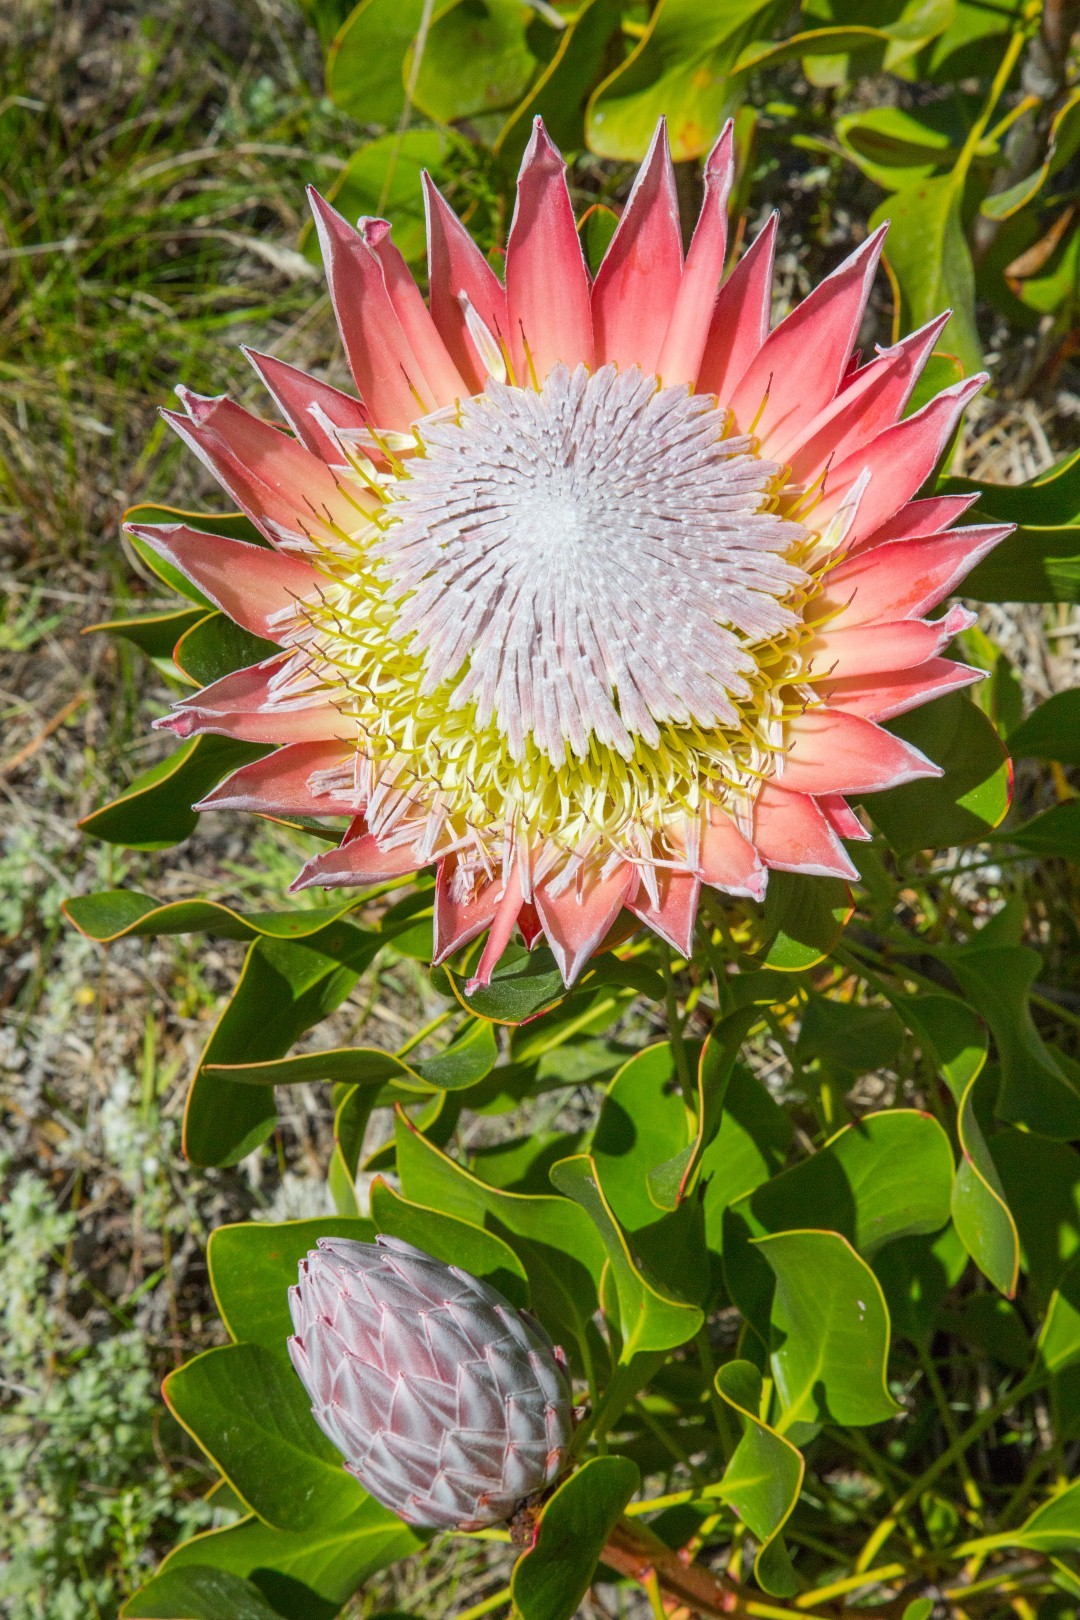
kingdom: Plantae
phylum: Tracheophyta
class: Magnoliopsida
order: Proteales
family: Proteaceae
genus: Protea
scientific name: Protea cynaroides
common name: King protea
